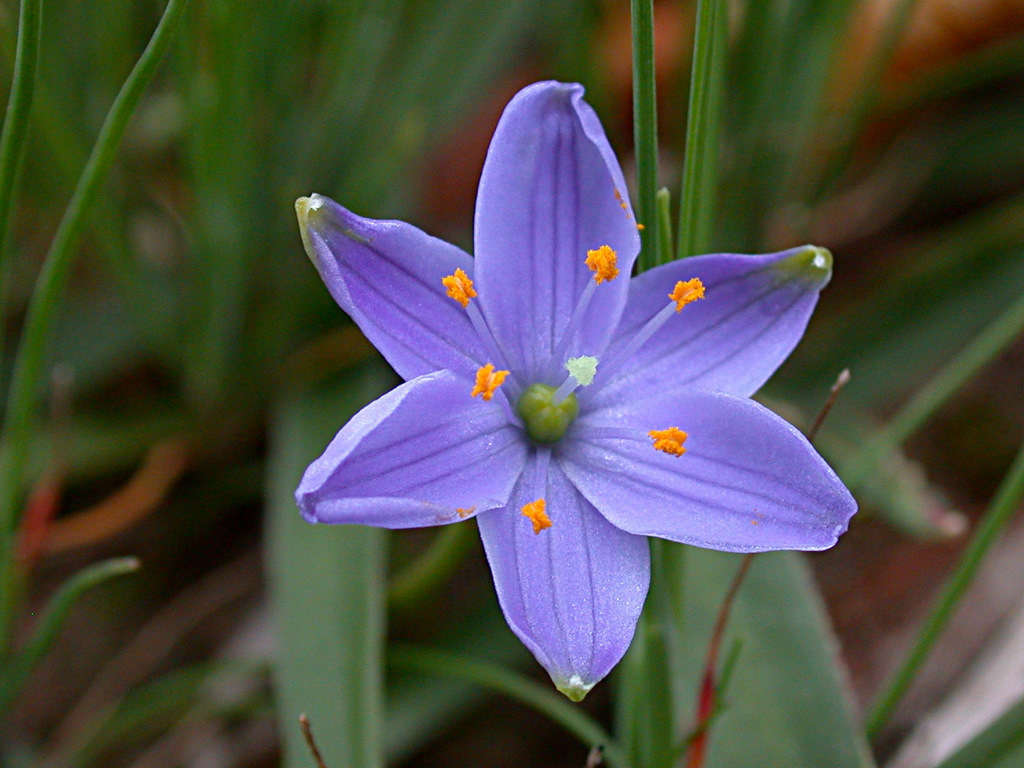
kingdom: Plantae
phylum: Tracheophyta
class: Liliopsida
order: Asparagales
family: Asphodelaceae
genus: Chamaescilla
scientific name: Chamaescilla corymbosa
